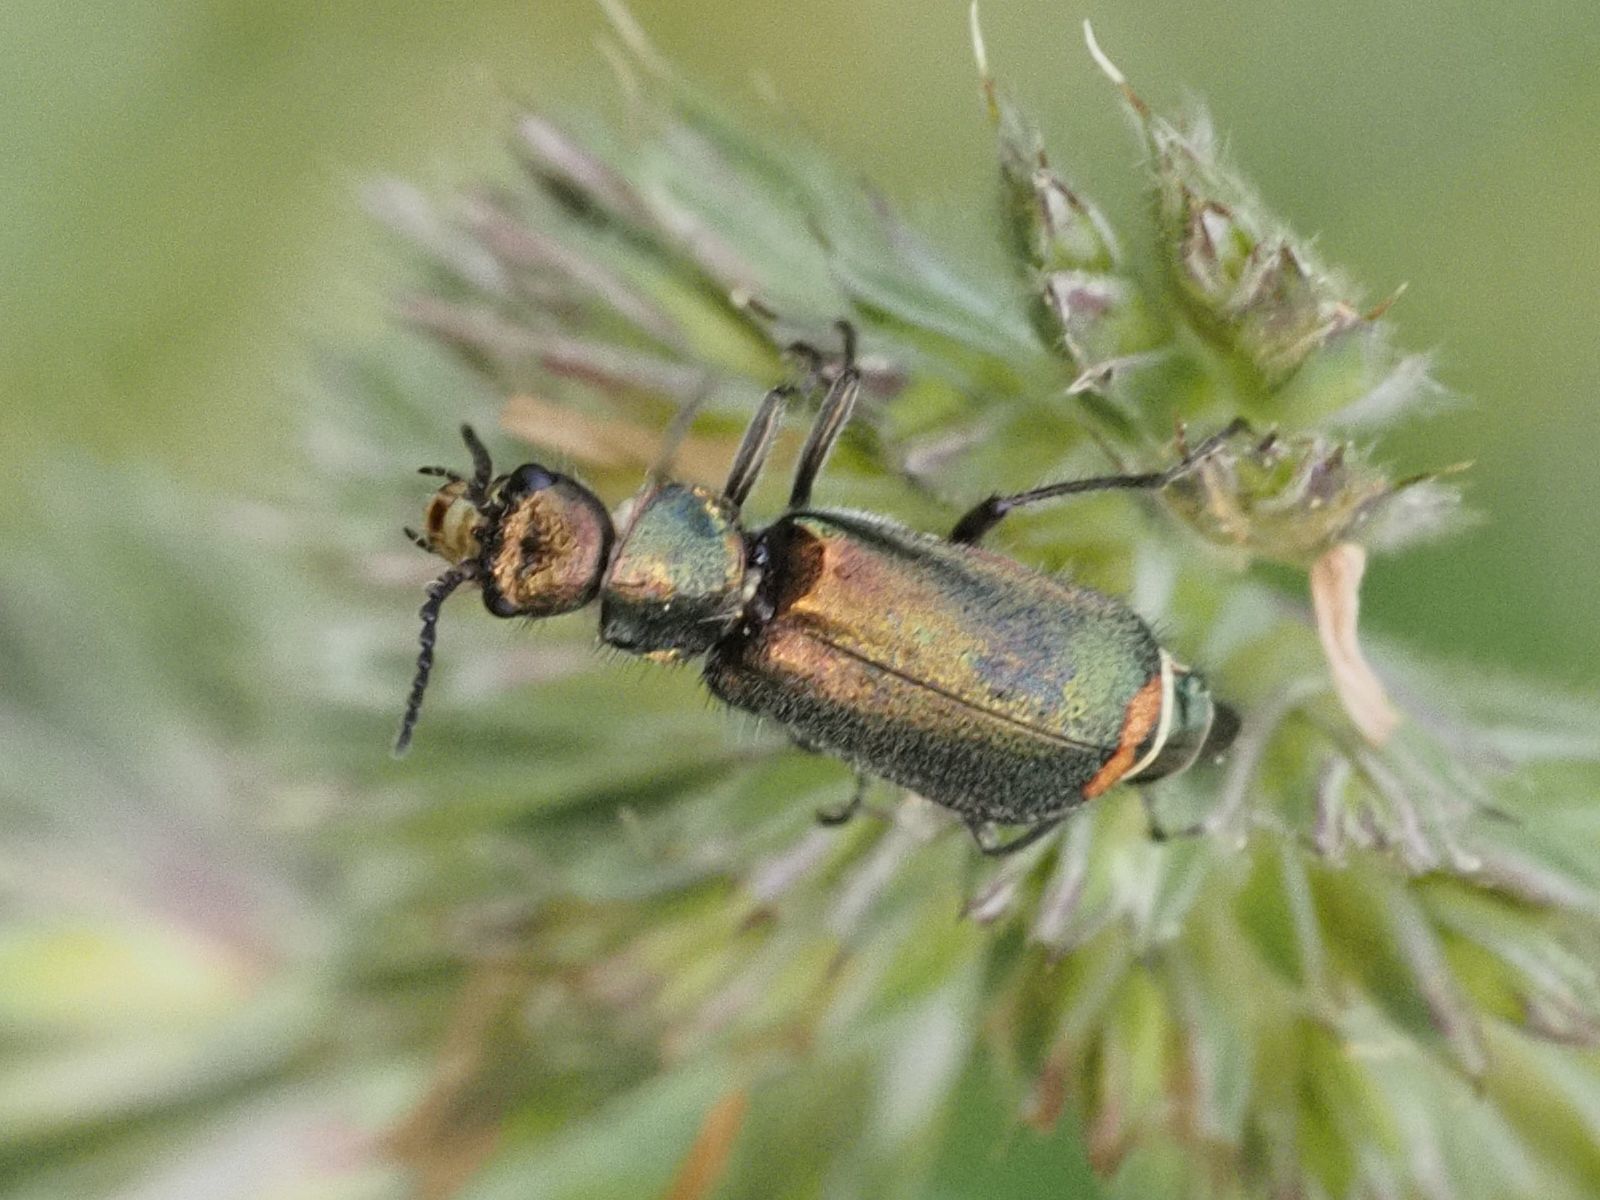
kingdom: Animalia
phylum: Arthropoda
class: Insecta
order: Coleoptera
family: Melyridae
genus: Malachius
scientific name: Malachius bipustulatus
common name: Malachite beetle
